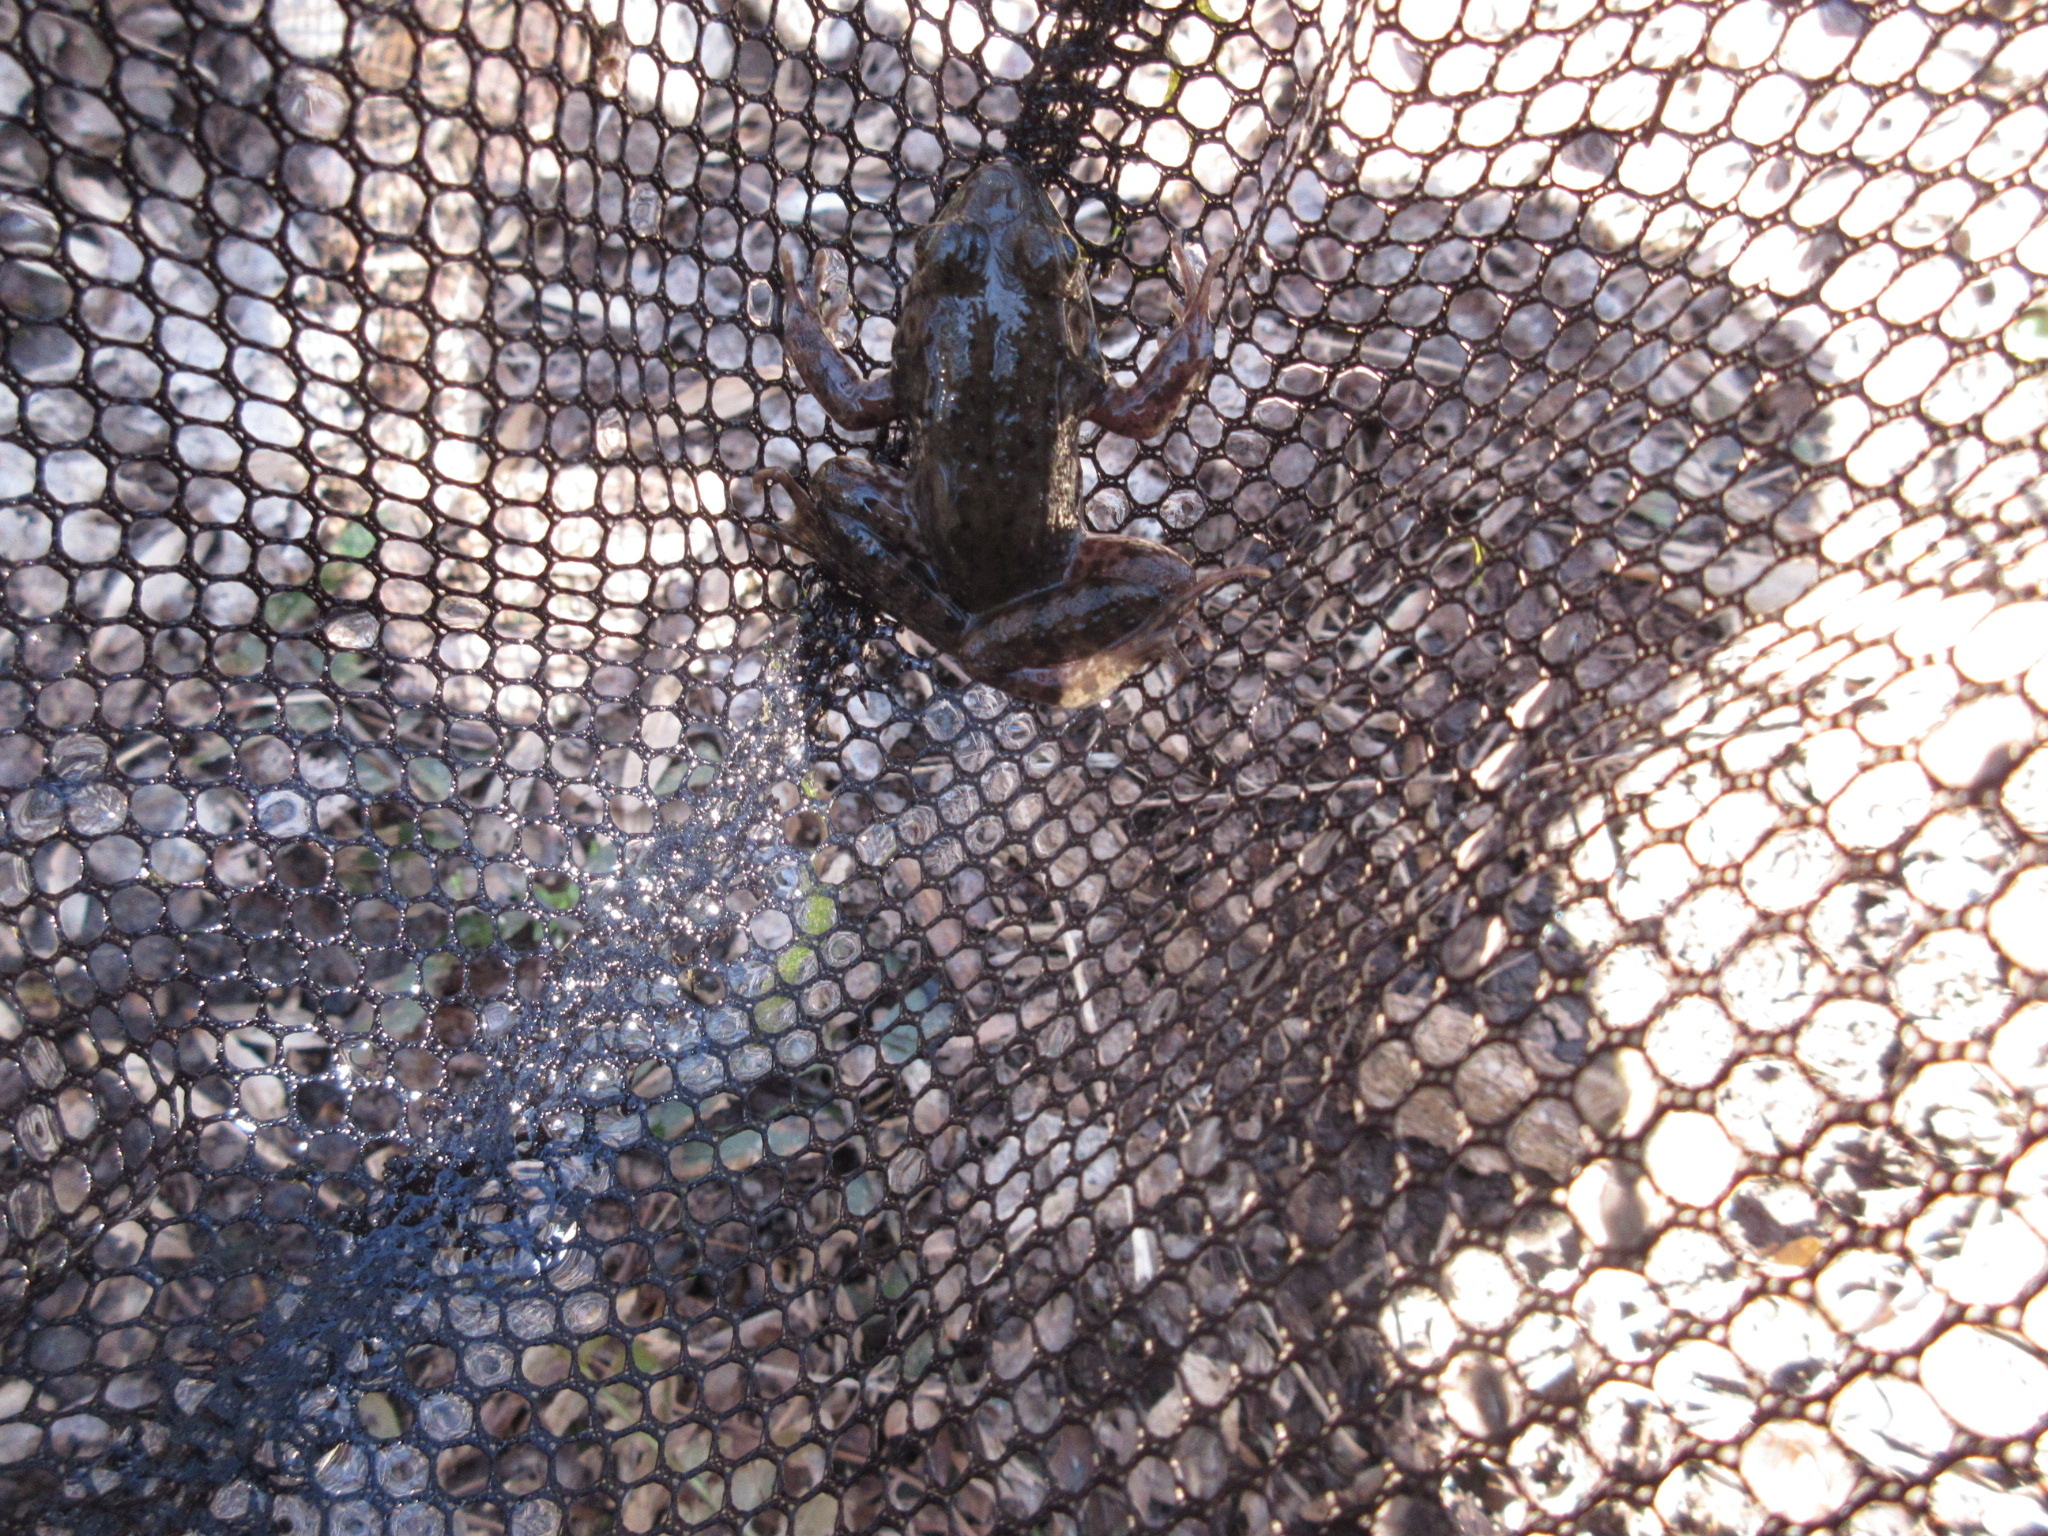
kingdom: Animalia
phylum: Chordata
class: Amphibia
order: Anura
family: Ranidae
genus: Lithobates
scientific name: Lithobates clamitans
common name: Green frog
